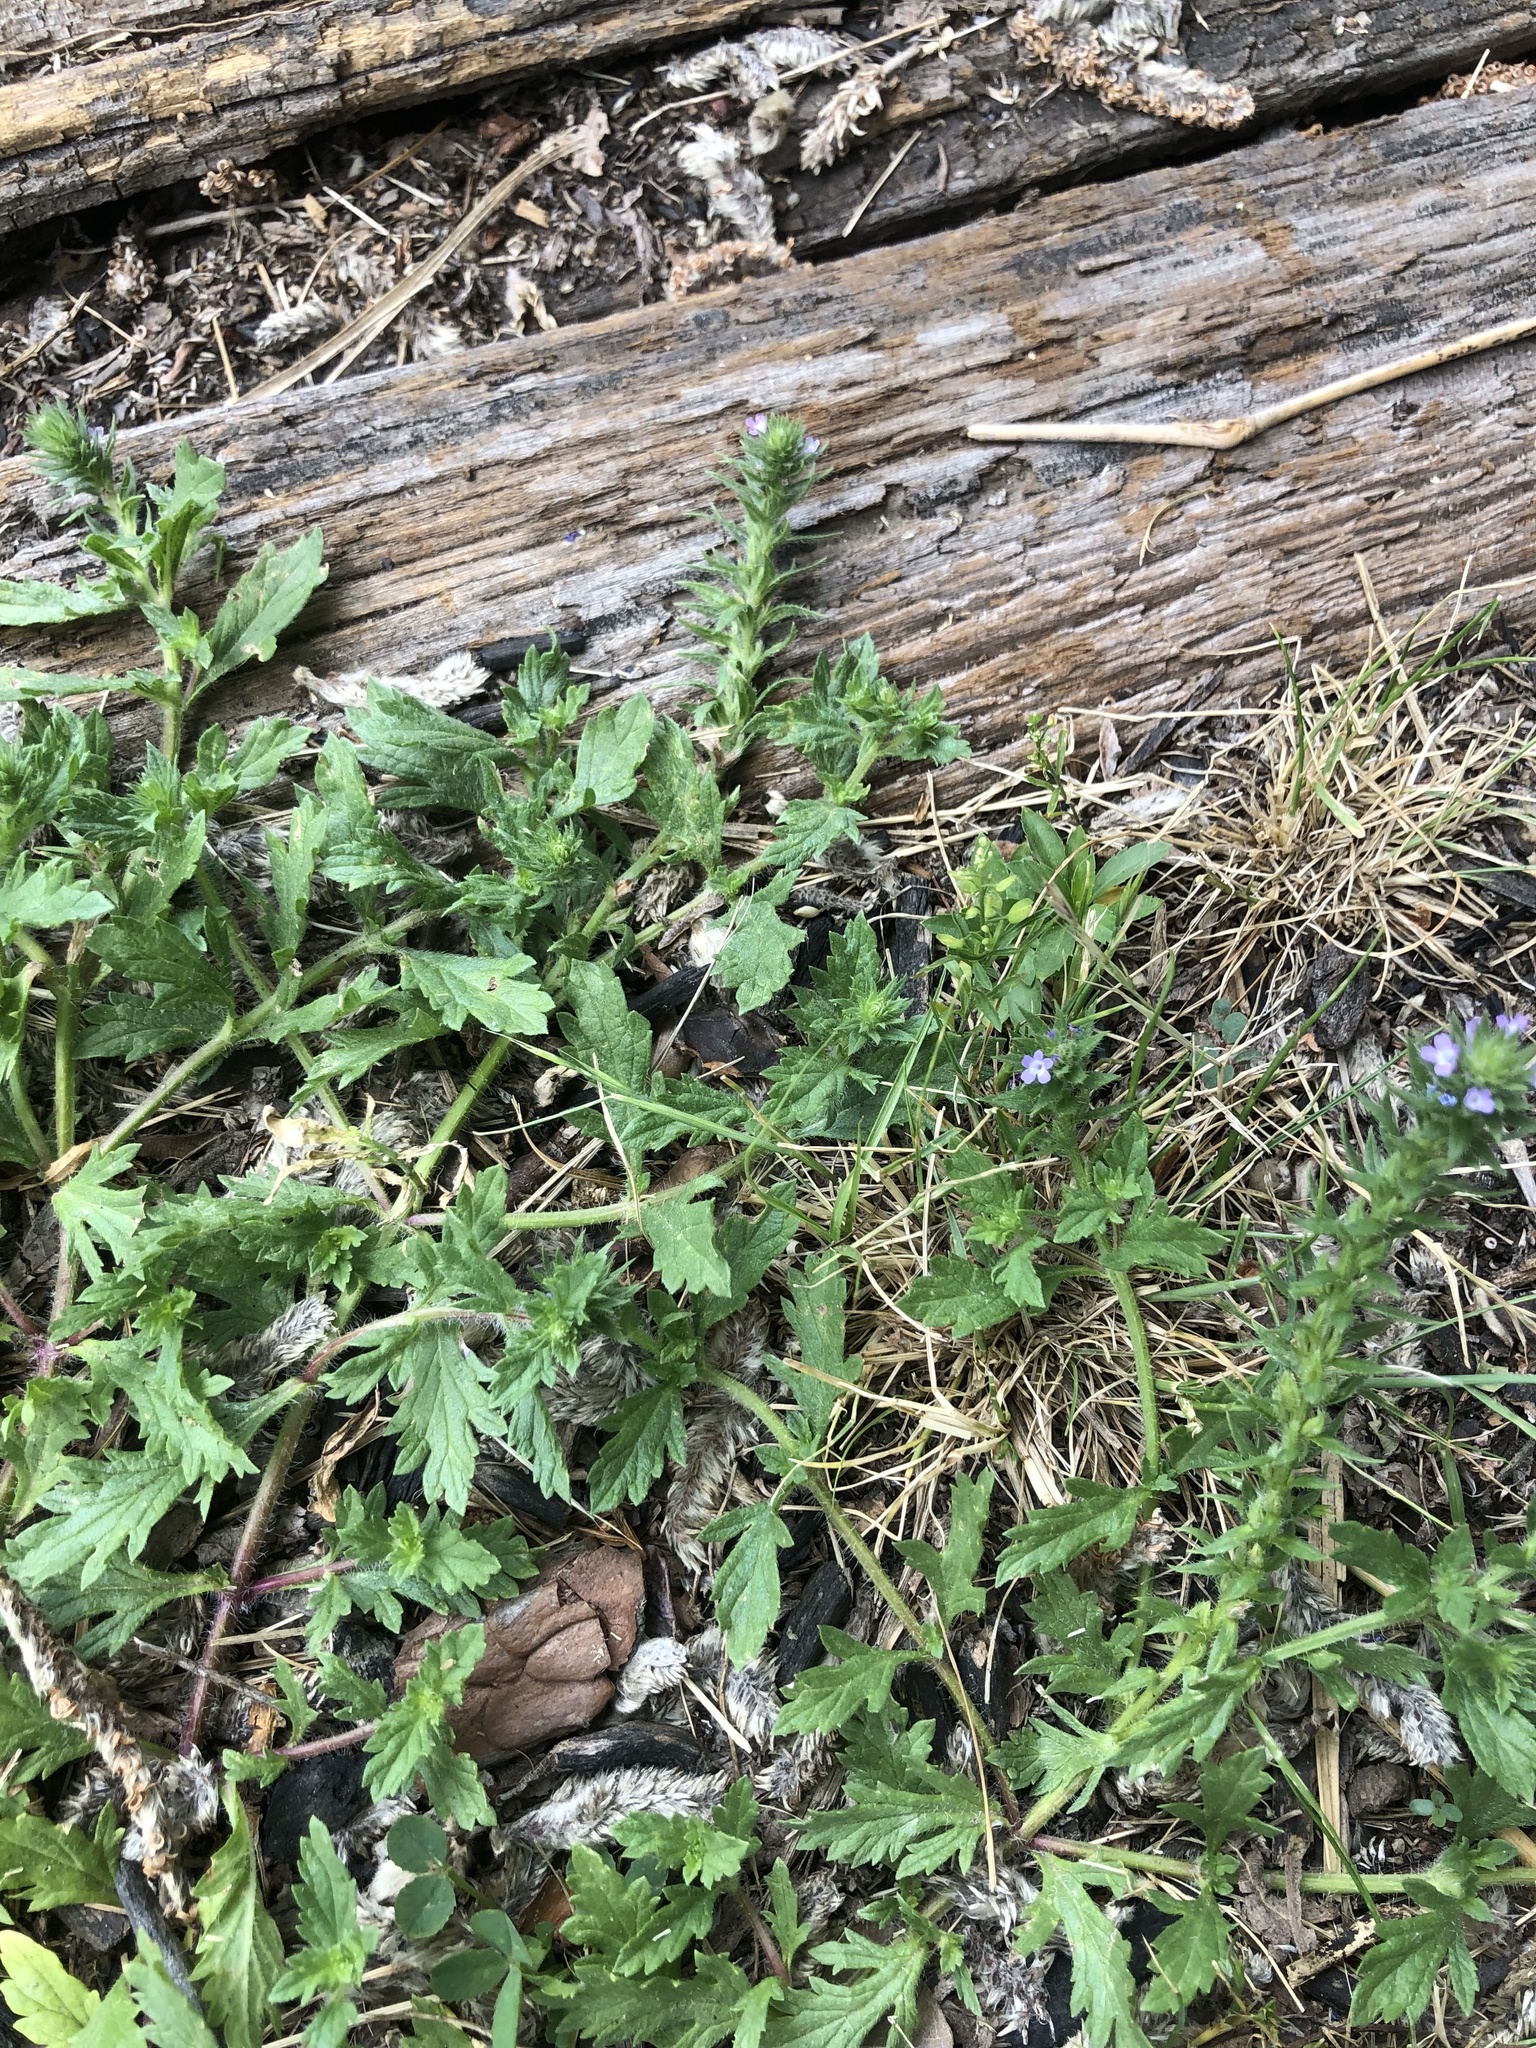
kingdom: Plantae
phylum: Tracheophyta
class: Magnoliopsida
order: Lamiales
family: Verbenaceae
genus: Verbena
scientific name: Verbena bracteata
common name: Bracted vervain
